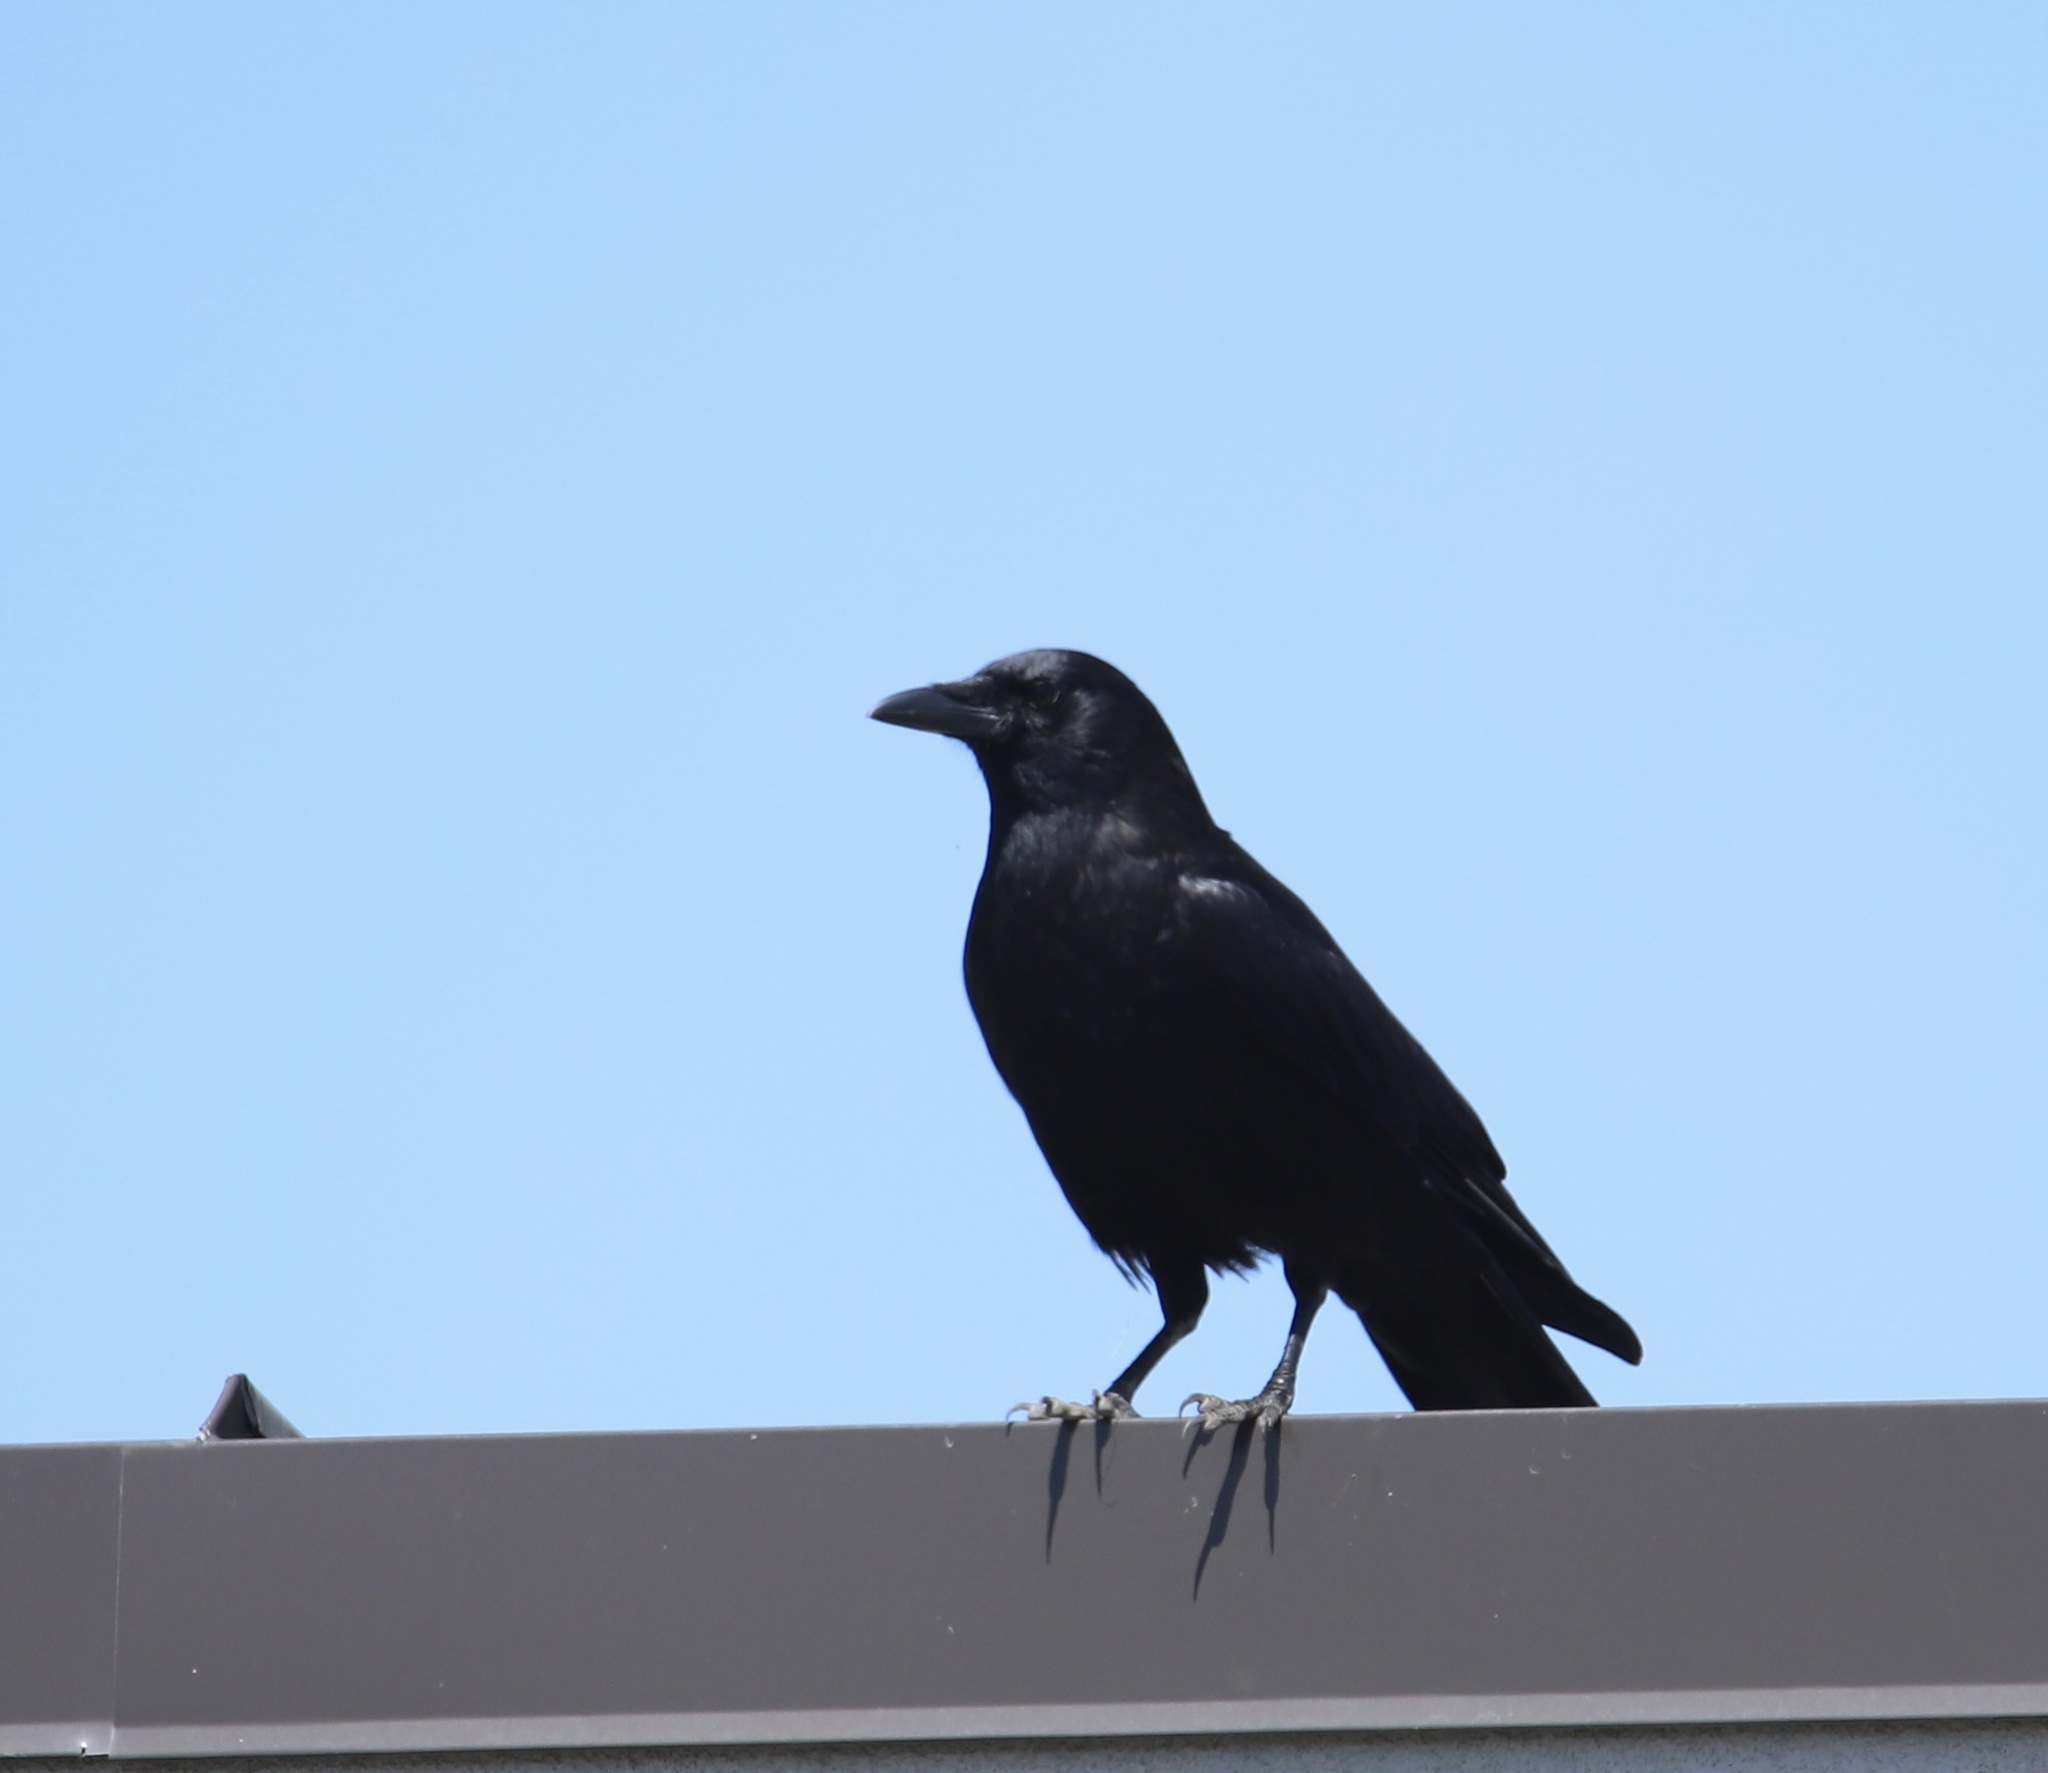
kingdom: Animalia
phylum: Chordata
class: Aves
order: Passeriformes
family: Corvidae
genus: Corvus
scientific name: Corvus brachyrhynchos
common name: American crow
